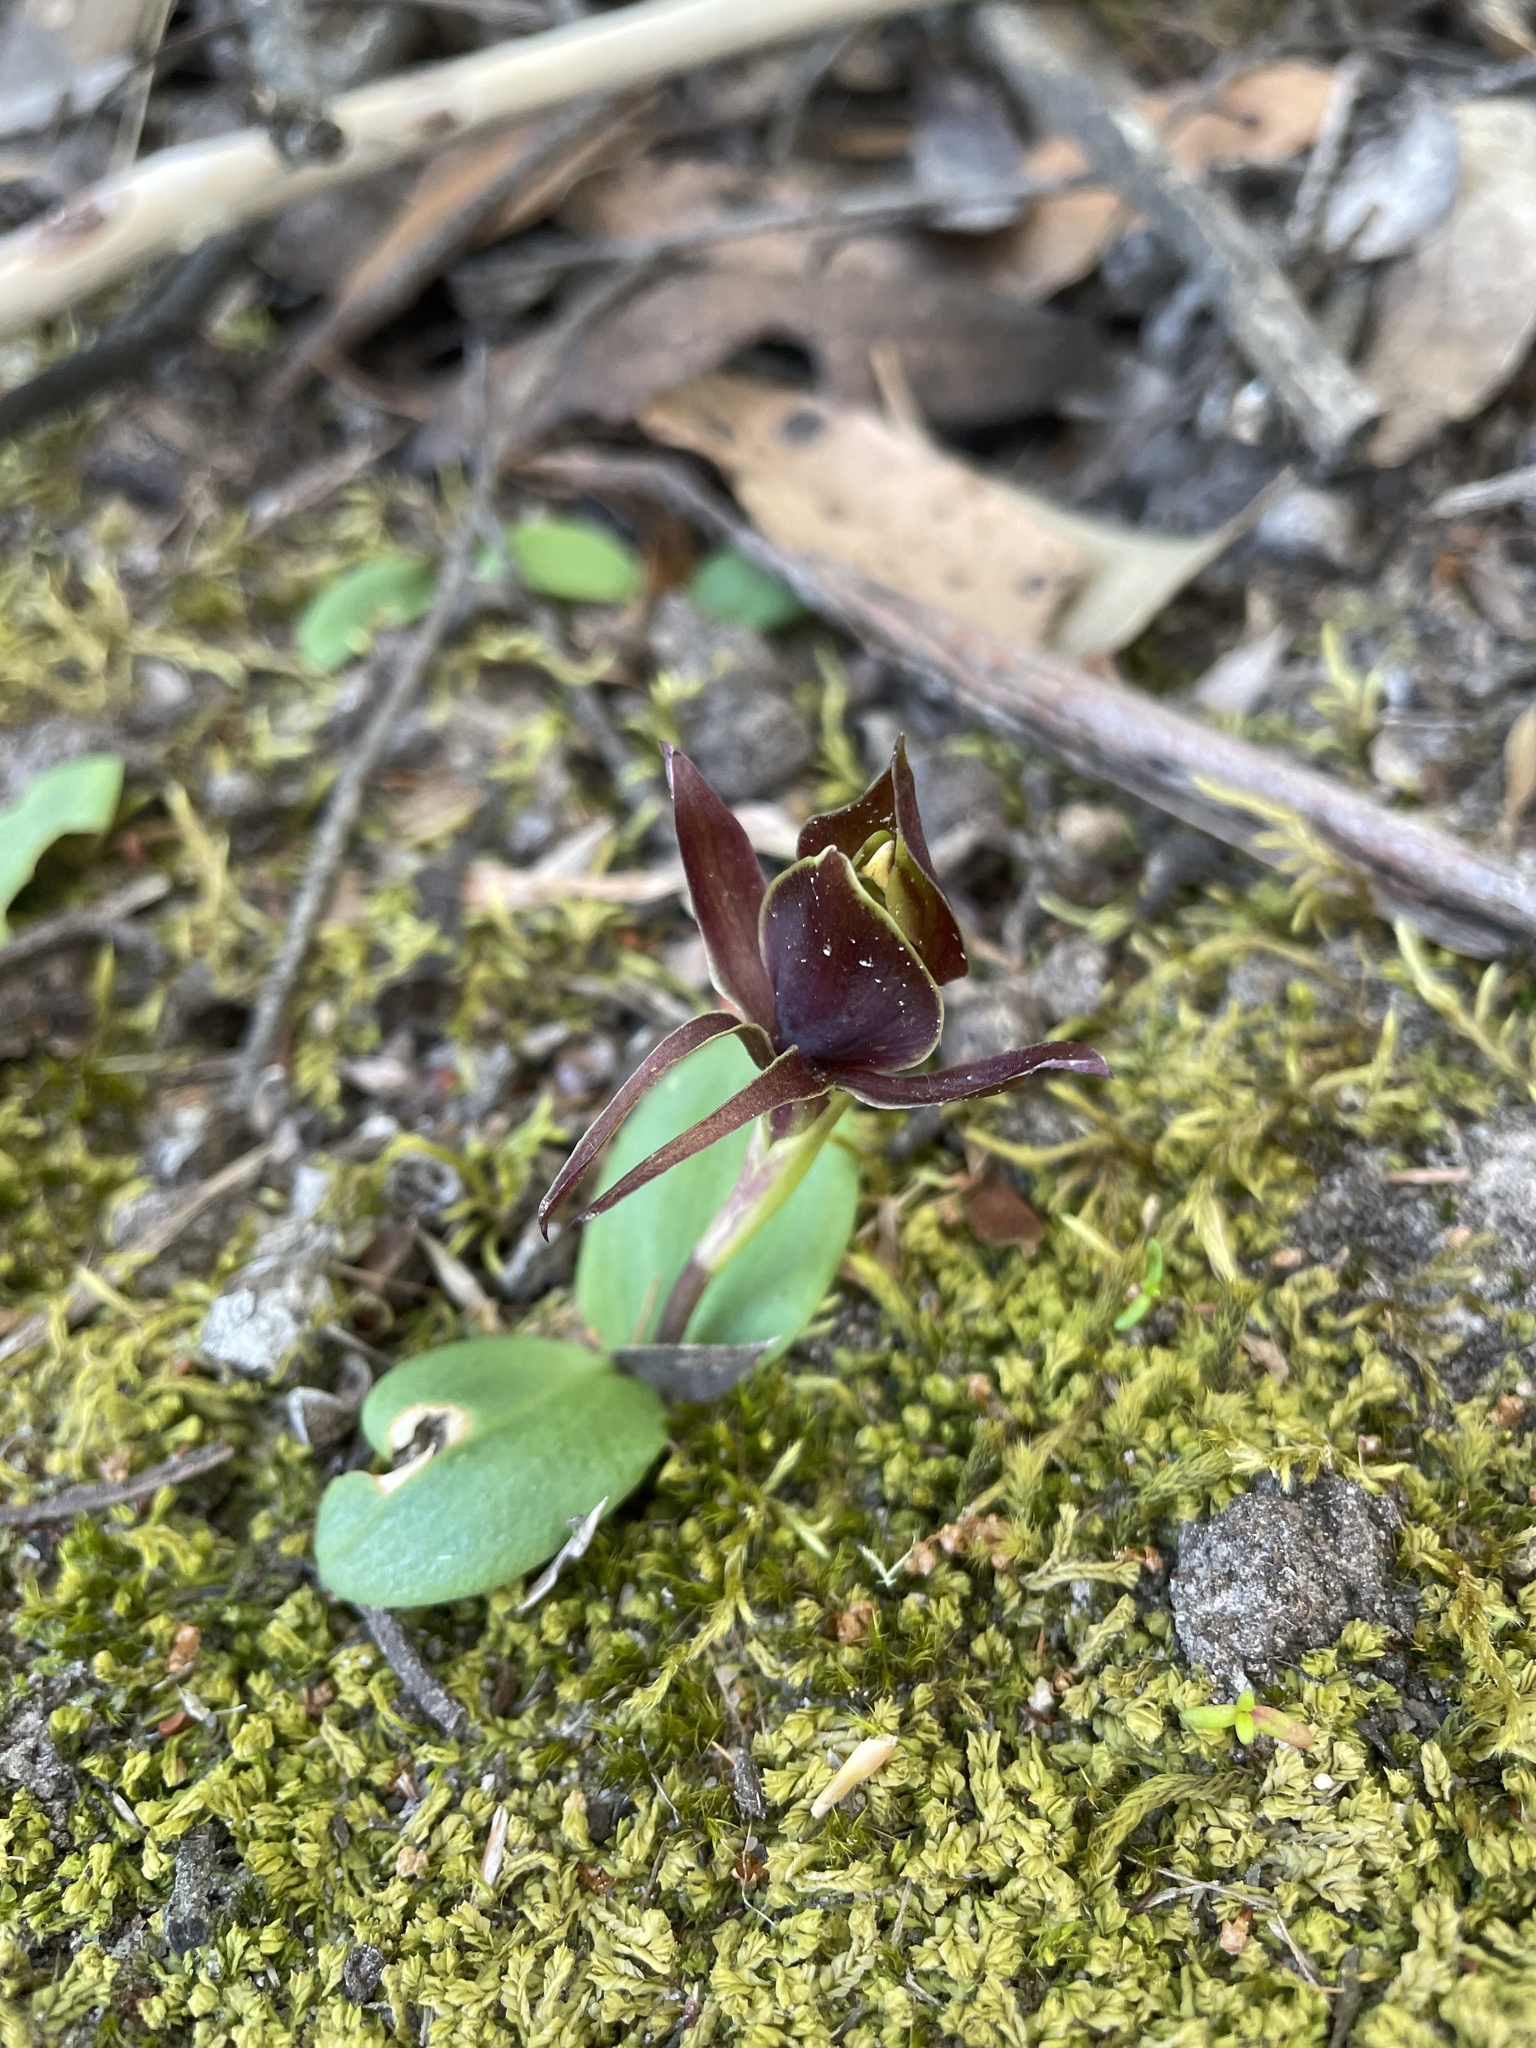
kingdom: Plantae
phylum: Tracheophyta
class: Liliopsida
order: Asparagales
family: Orchidaceae
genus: Chiloglottis
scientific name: Chiloglottis valida
